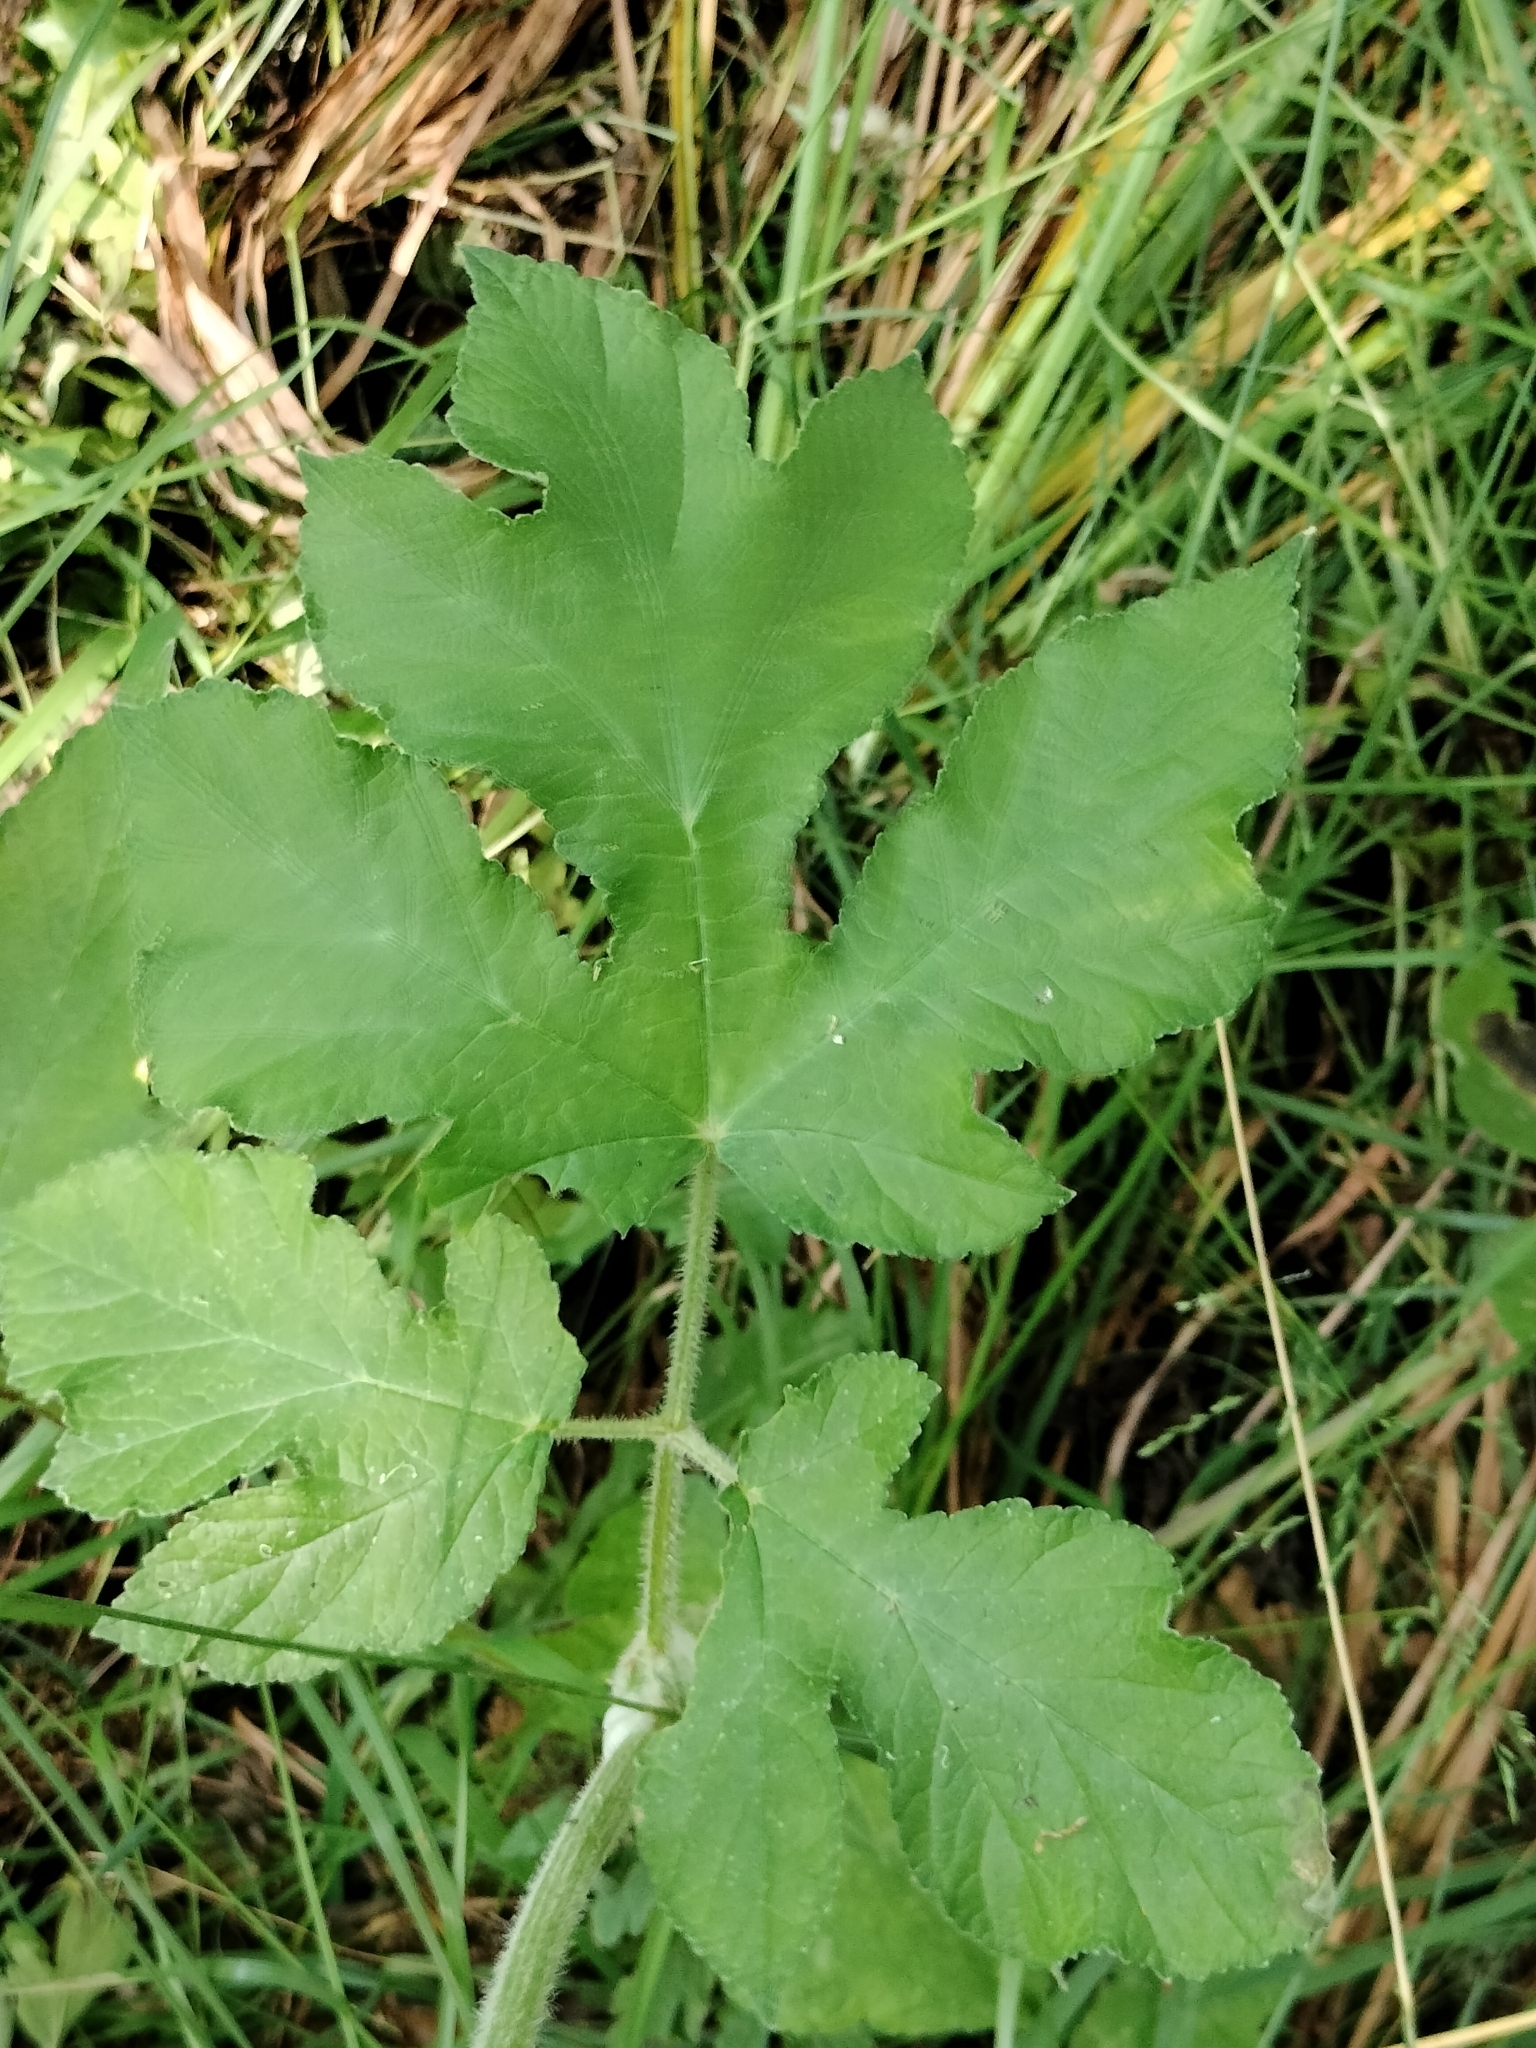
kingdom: Plantae
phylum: Tracheophyta
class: Magnoliopsida
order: Apiales
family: Apiaceae
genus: Heracleum
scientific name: Heracleum sphondylium
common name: Hogweed
